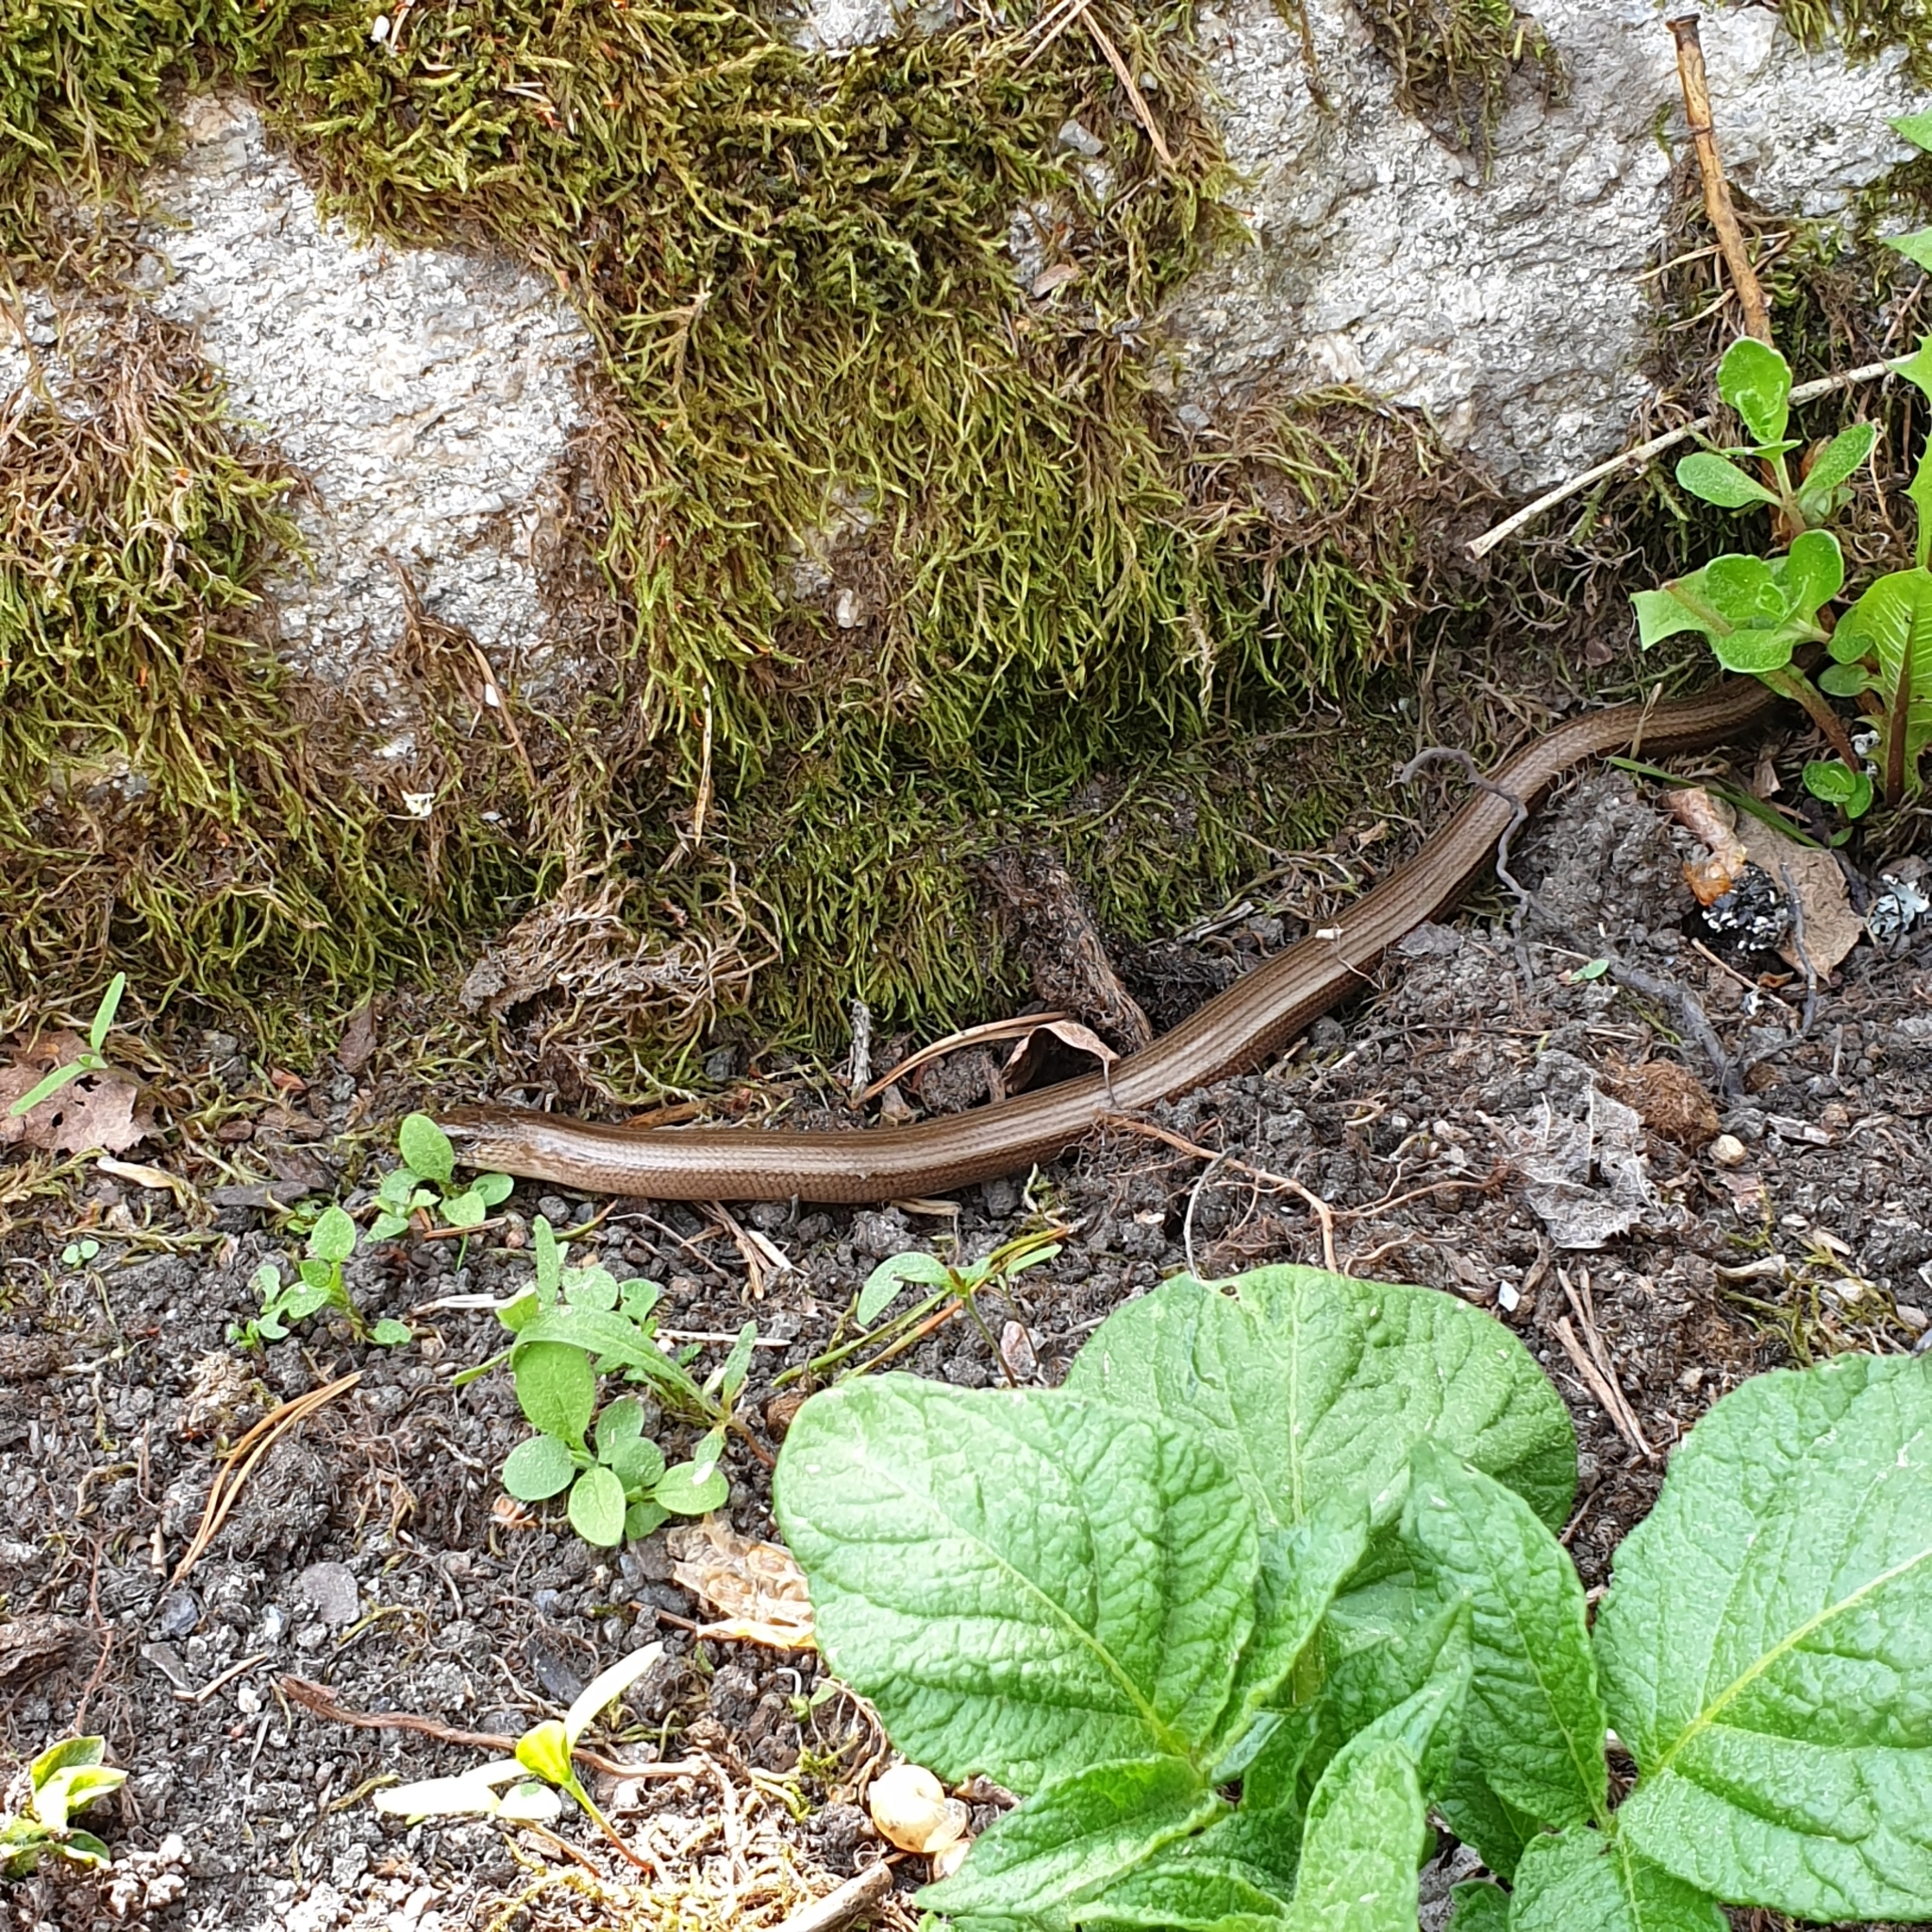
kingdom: Animalia
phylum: Chordata
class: Squamata
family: Anguidae
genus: Anguis
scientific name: Anguis fragilis
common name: Slow worm
